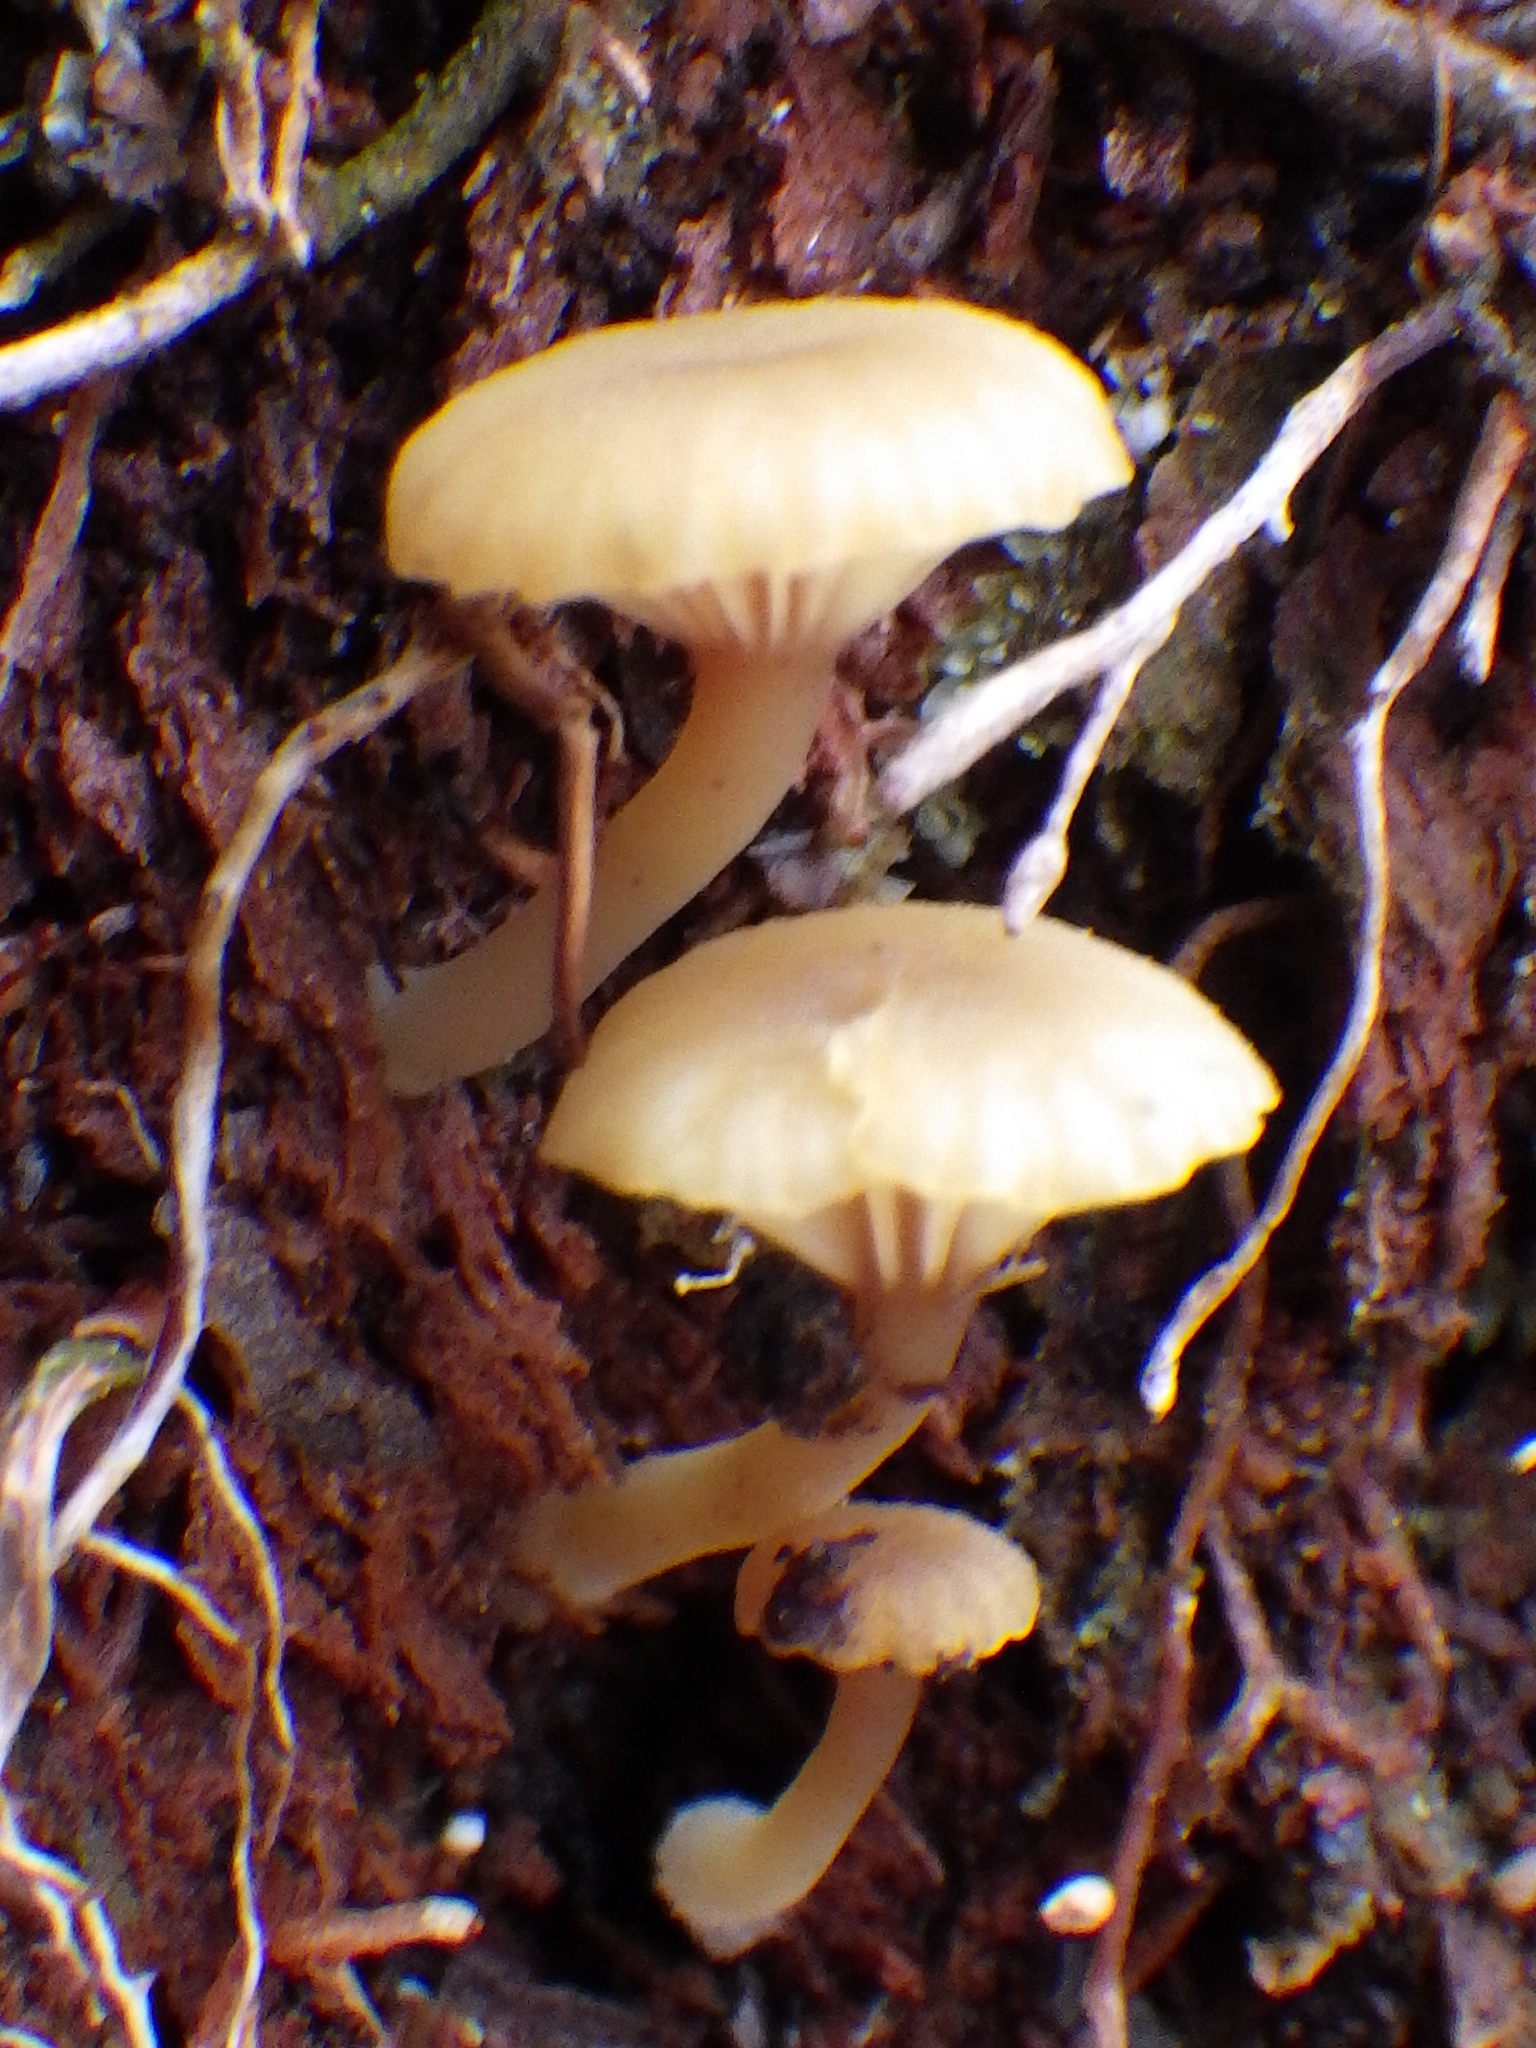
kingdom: Fungi
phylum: Basidiomycota
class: Agaricomycetes
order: Agaricales
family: Hygrophoraceae
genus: Lichenomphalia
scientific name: Lichenomphalia
